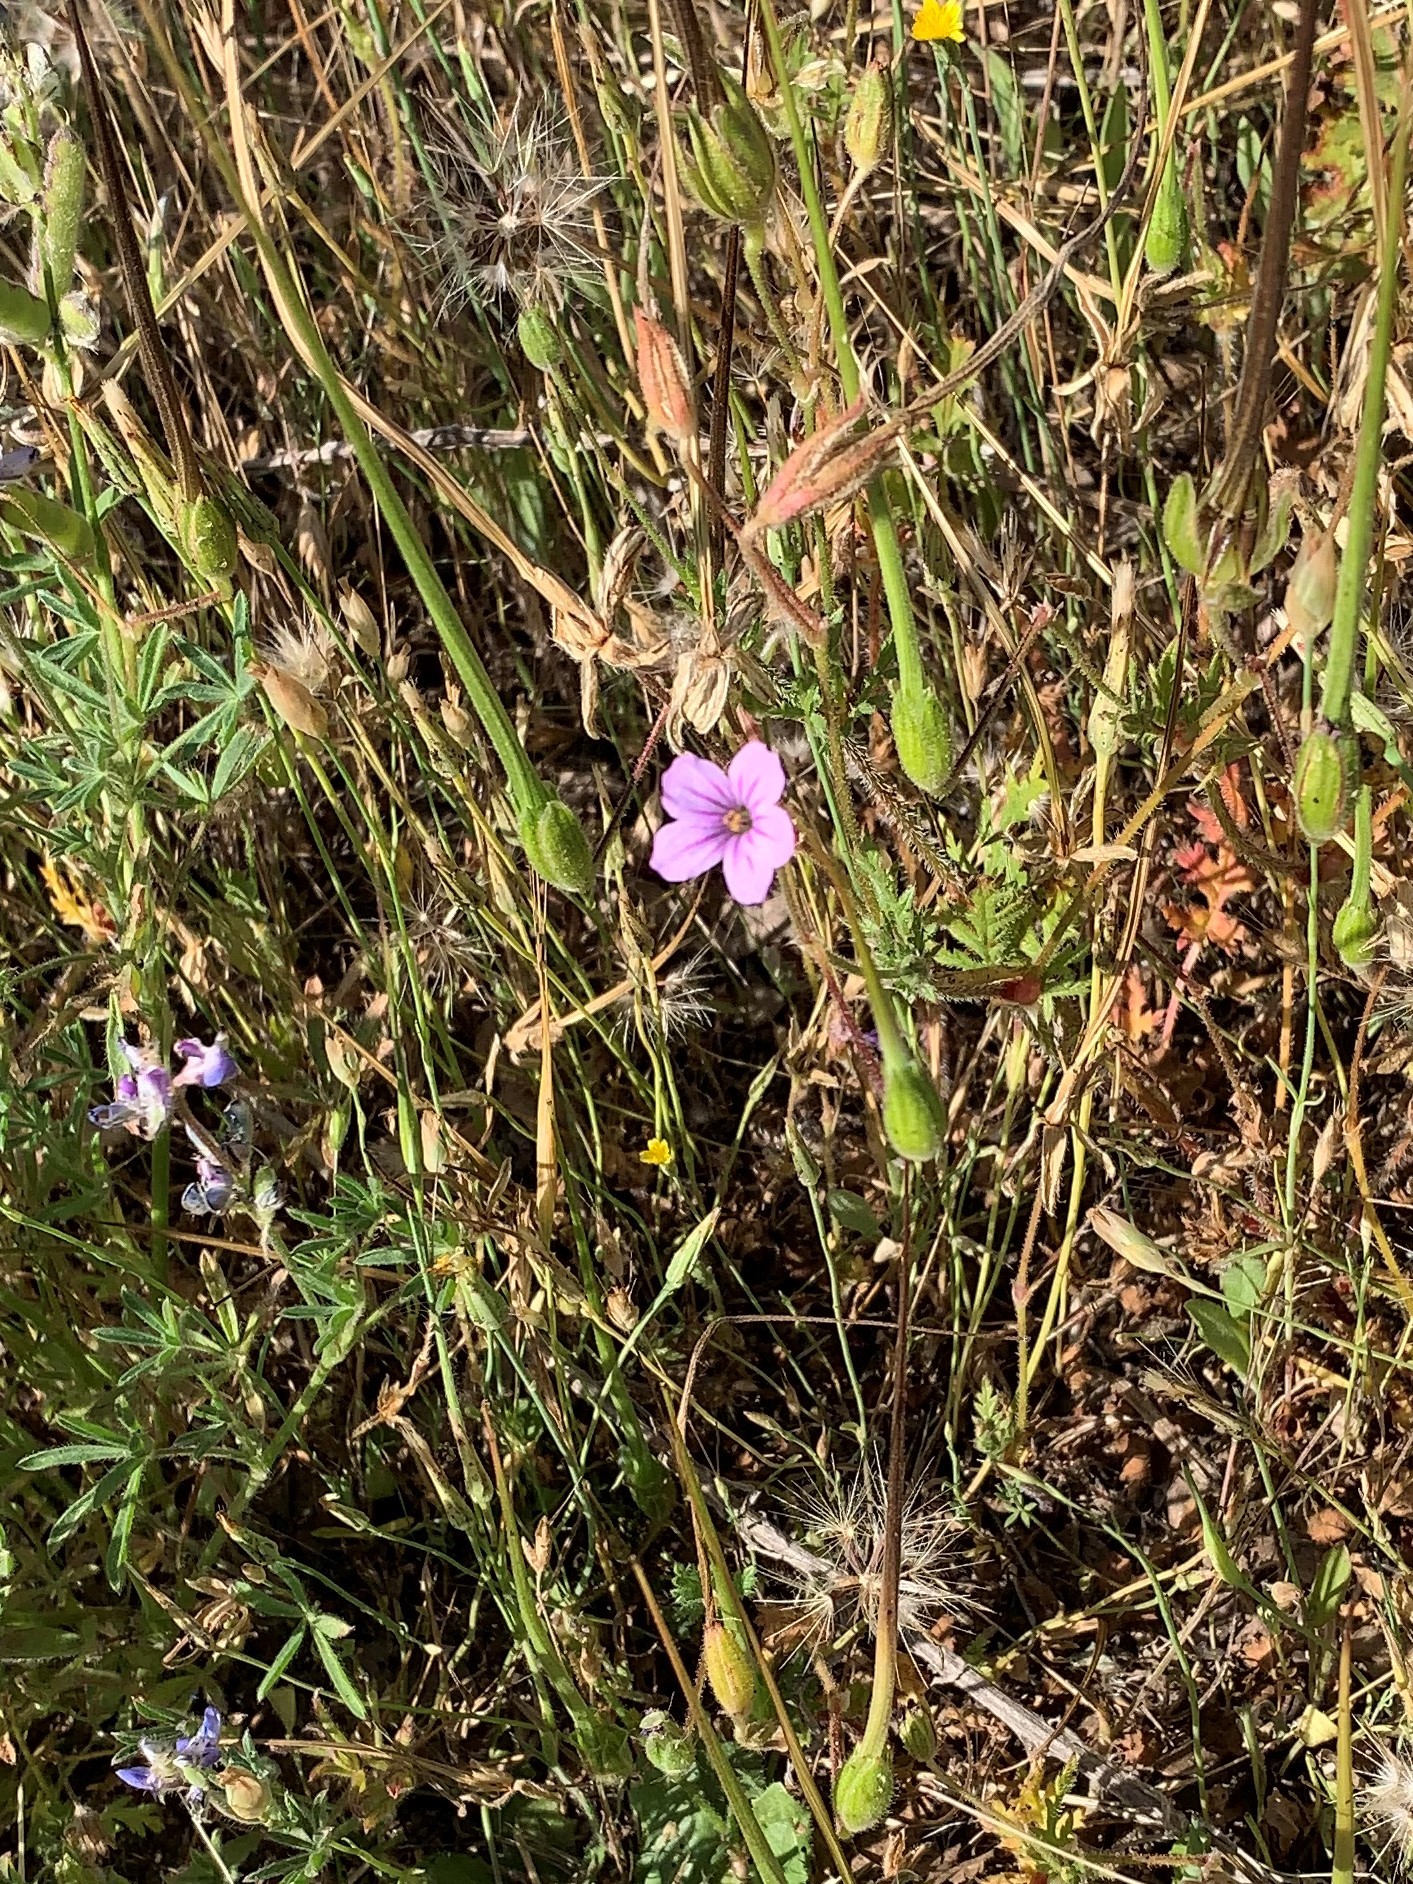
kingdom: Plantae
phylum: Tracheophyta
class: Magnoliopsida
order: Geraniales
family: Geraniaceae
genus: Erodium
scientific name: Erodium botrys
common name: Mediterranean stork's-bill
